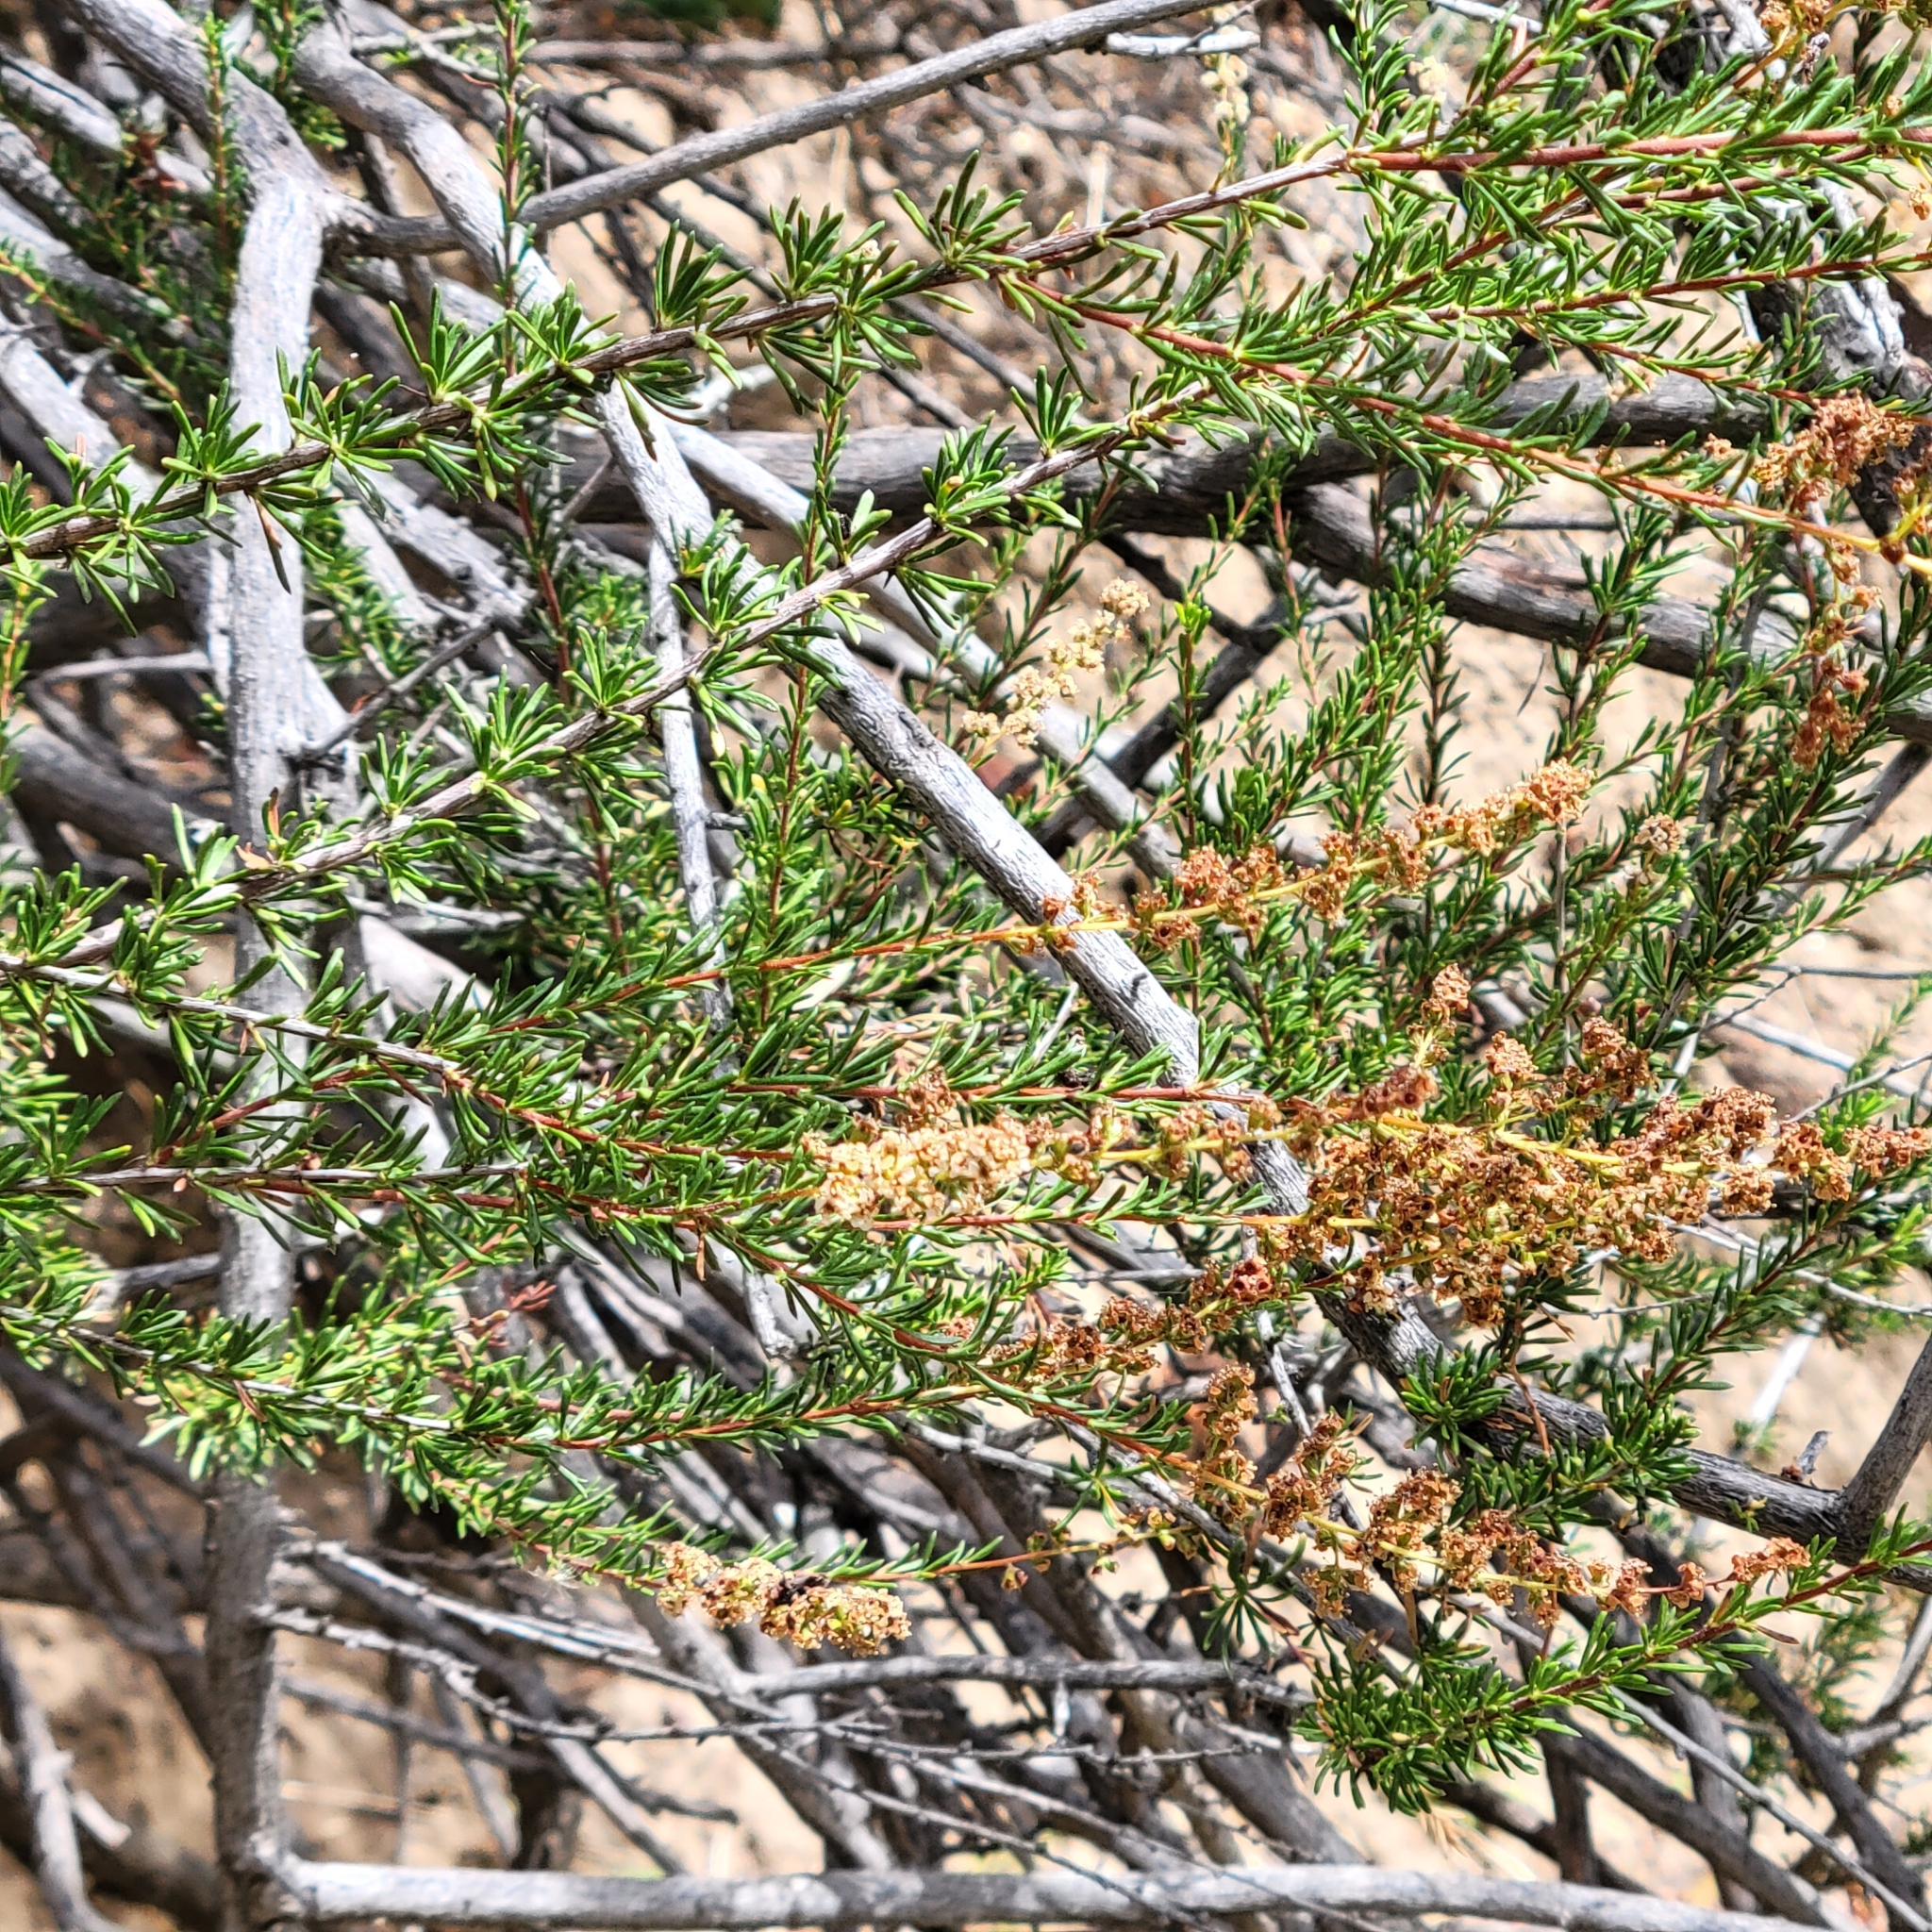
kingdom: Plantae
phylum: Tracheophyta
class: Magnoliopsida
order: Rosales
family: Rosaceae
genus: Adenostoma
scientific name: Adenostoma fasciculatum
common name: Chamise
